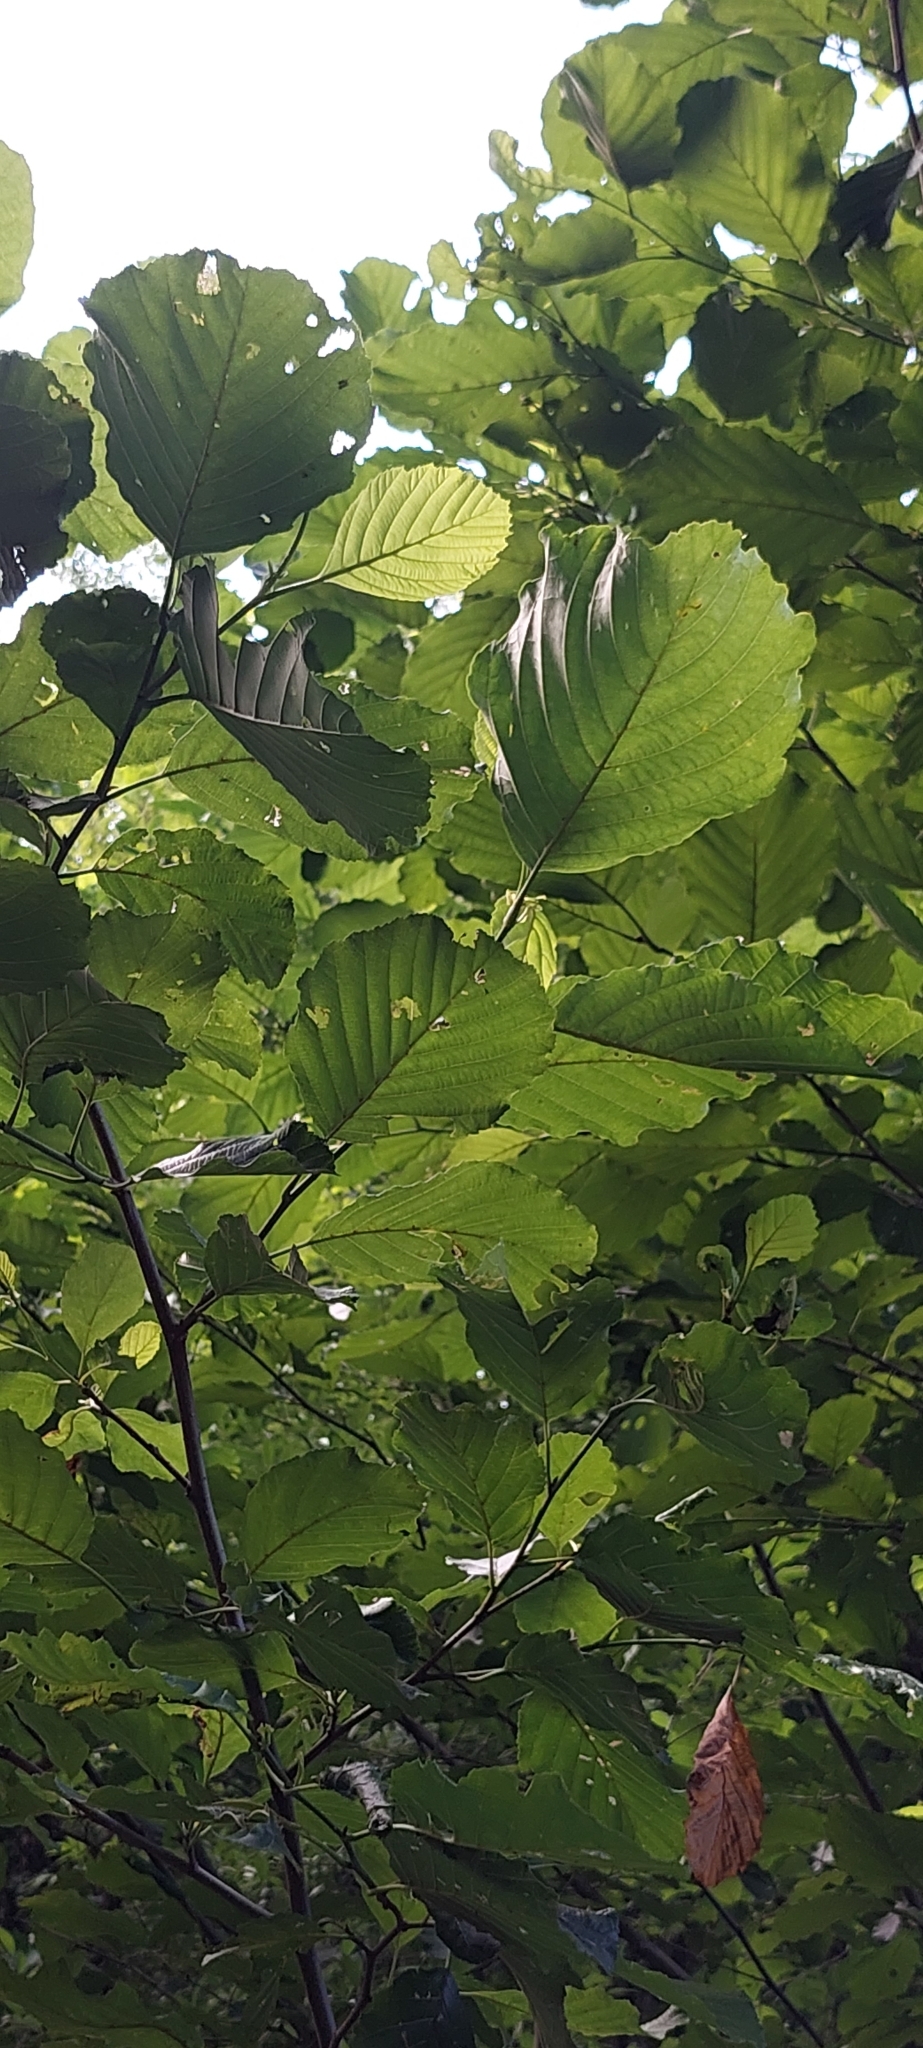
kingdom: Plantae
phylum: Tracheophyta
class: Magnoliopsida
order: Fagales
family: Betulaceae
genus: Alnus
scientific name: Alnus glutinosa
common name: Black alder
